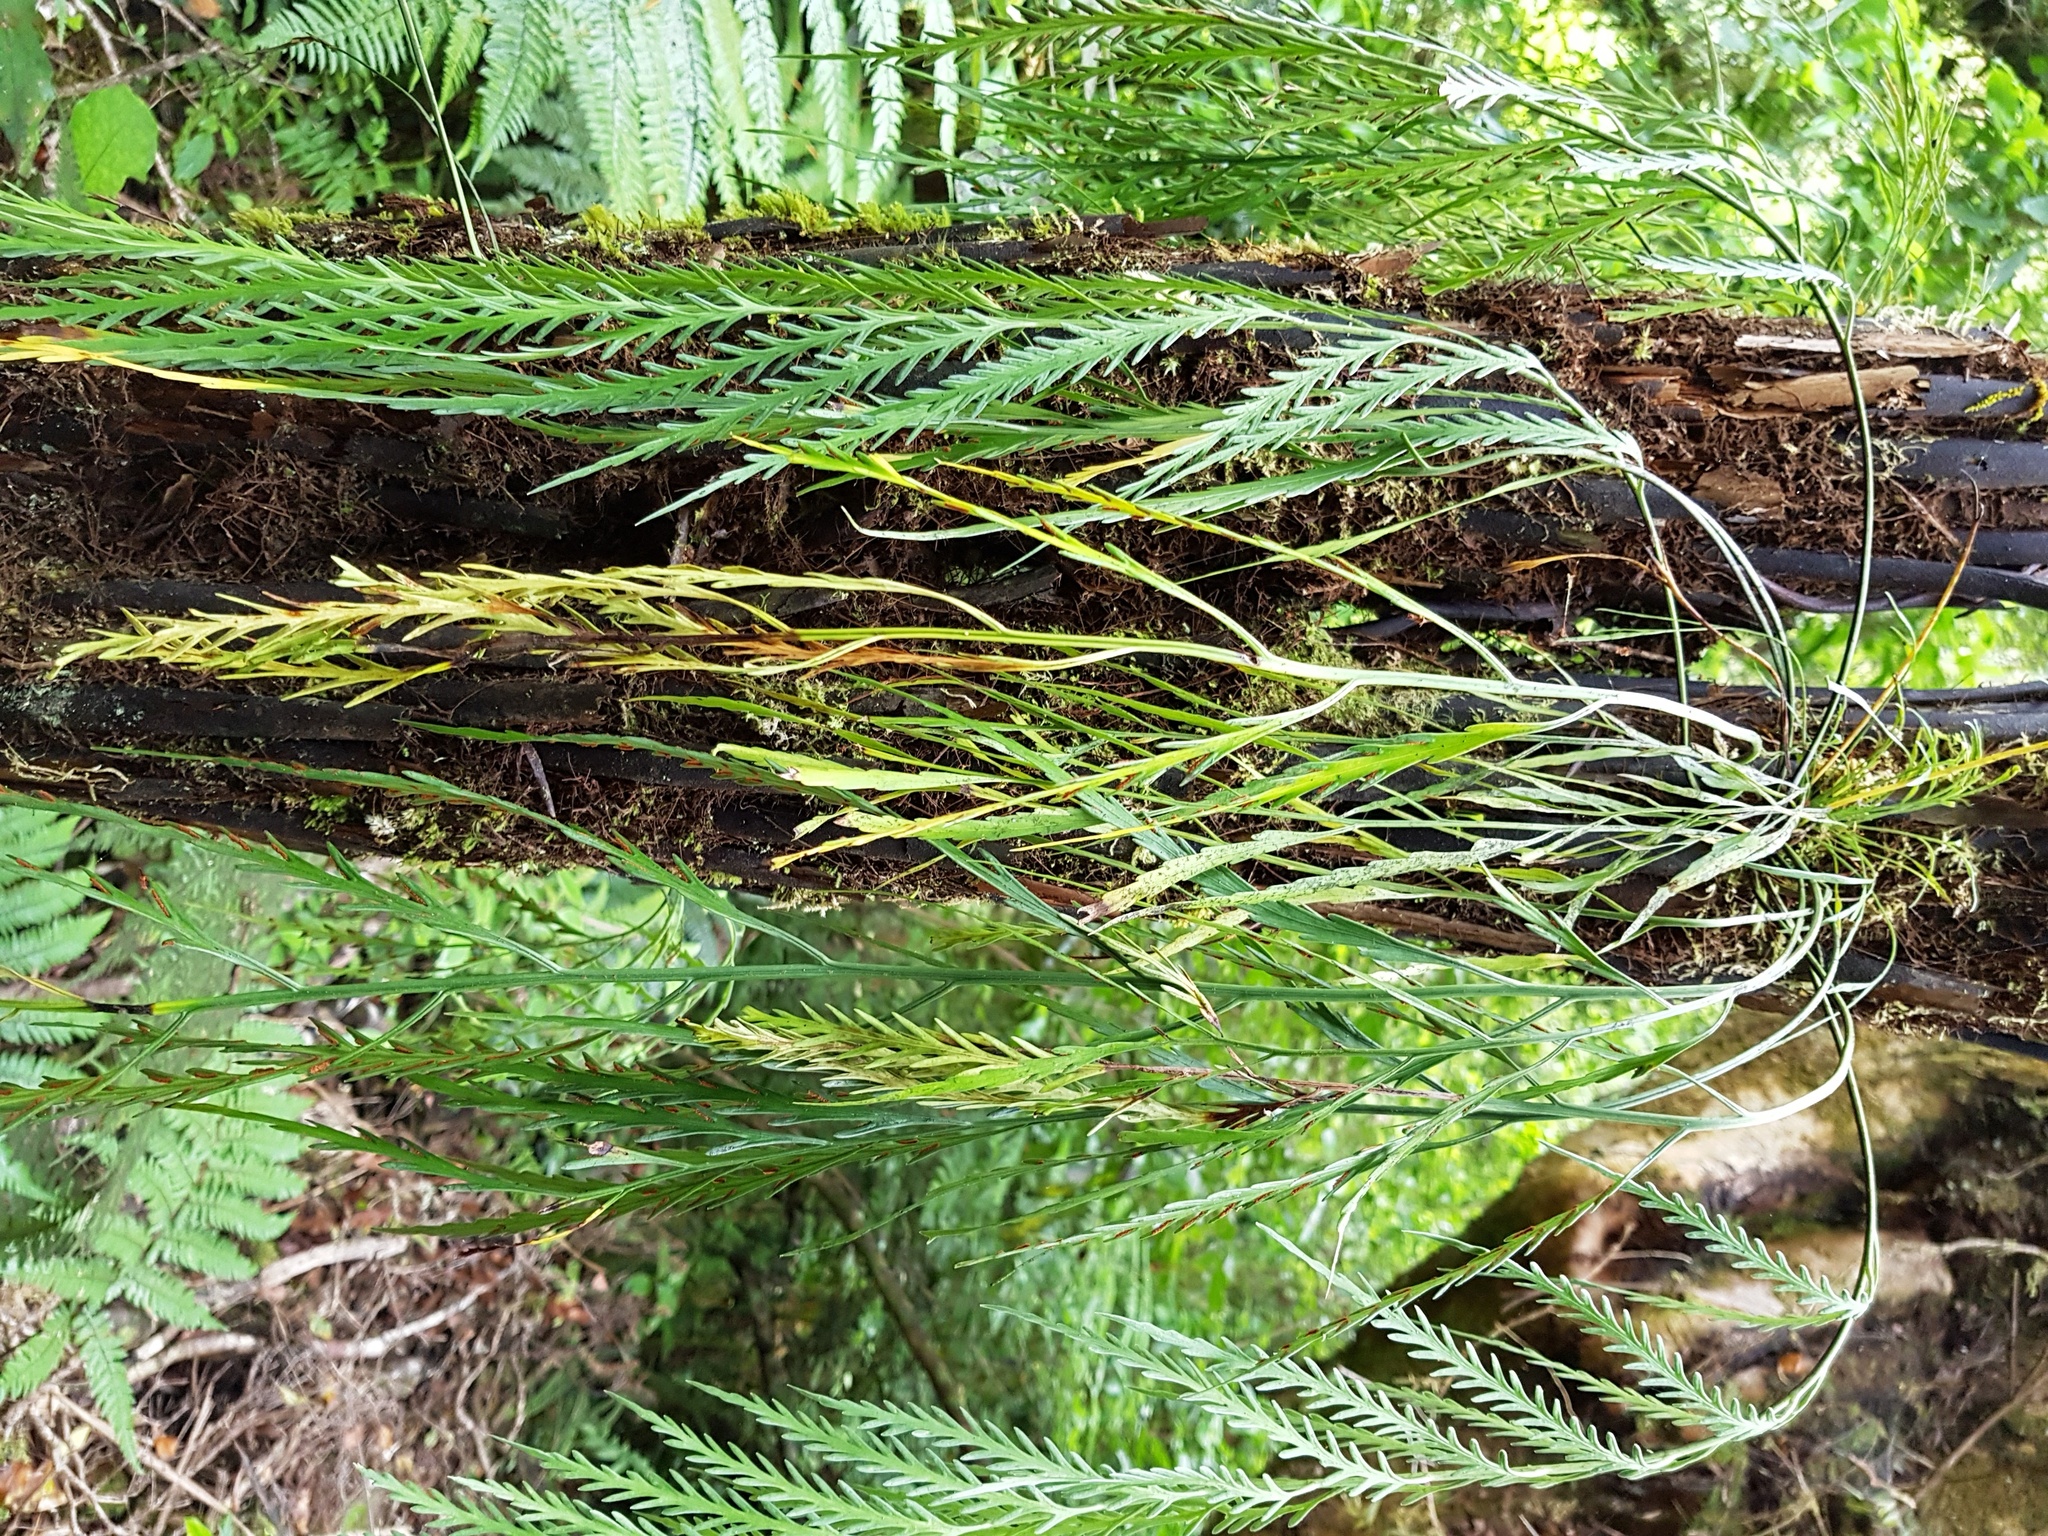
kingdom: Plantae
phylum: Tracheophyta
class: Polypodiopsida
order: Polypodiales
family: Aspleniaceae
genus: Asplenium
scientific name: Asplenium flaccidum
